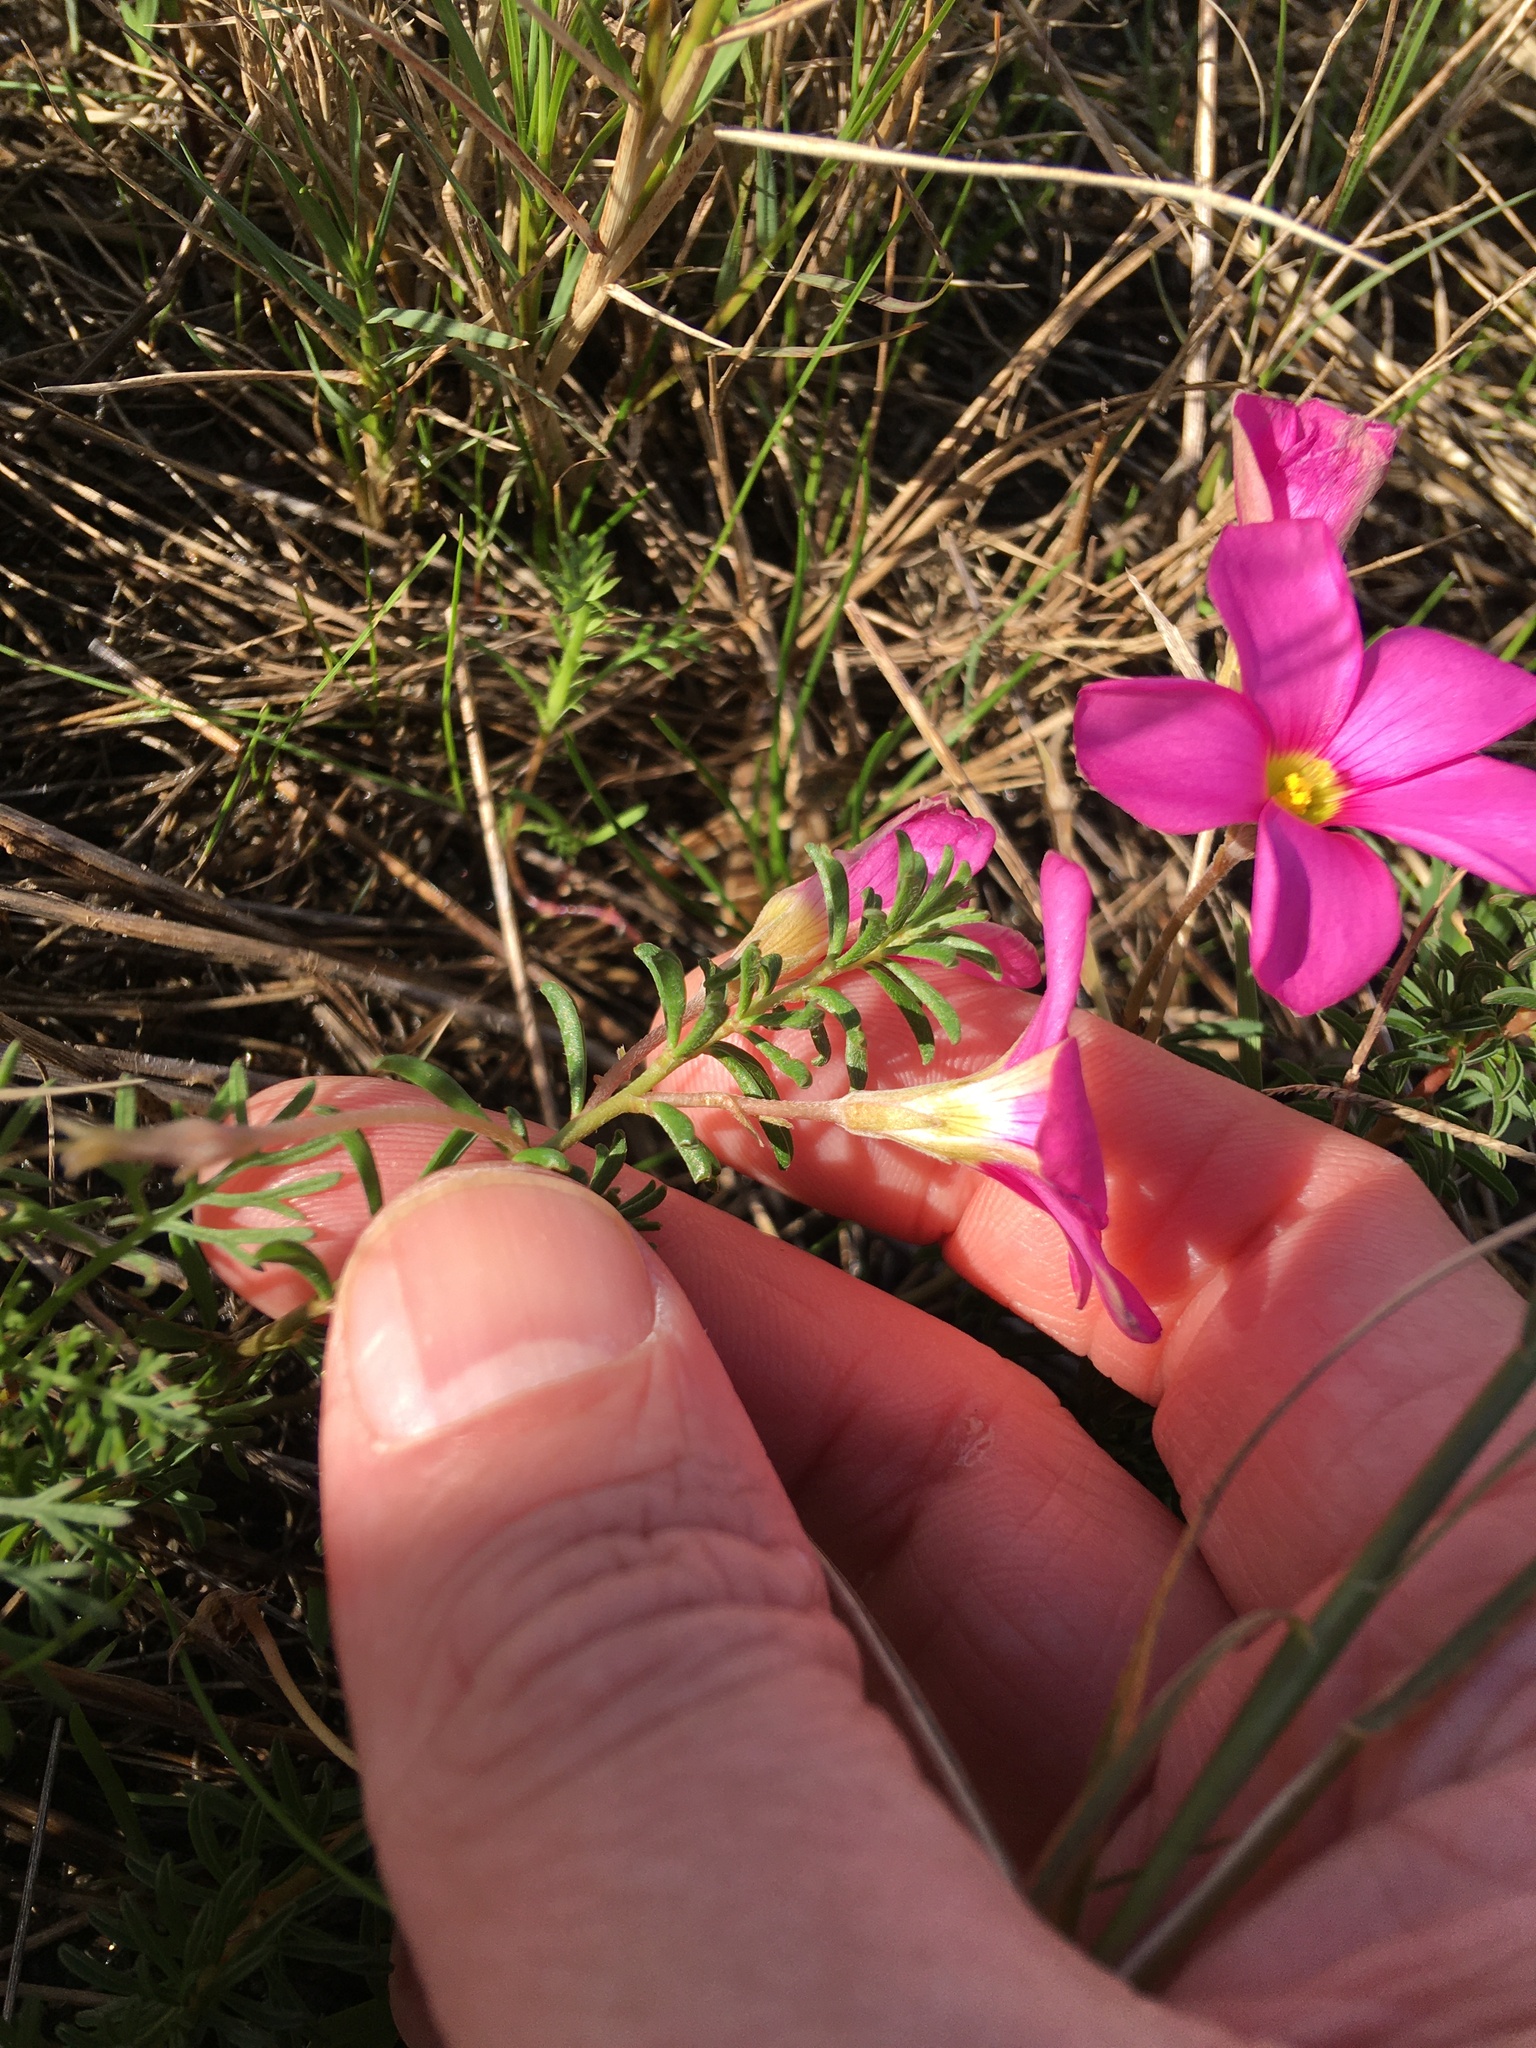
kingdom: Plantae
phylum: Tracheophyta
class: Magnoliopsida
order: Oxalidales
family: Oxalidaceae
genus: Oxalis
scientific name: Oxalis hirta
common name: Tropical woodsorrel
